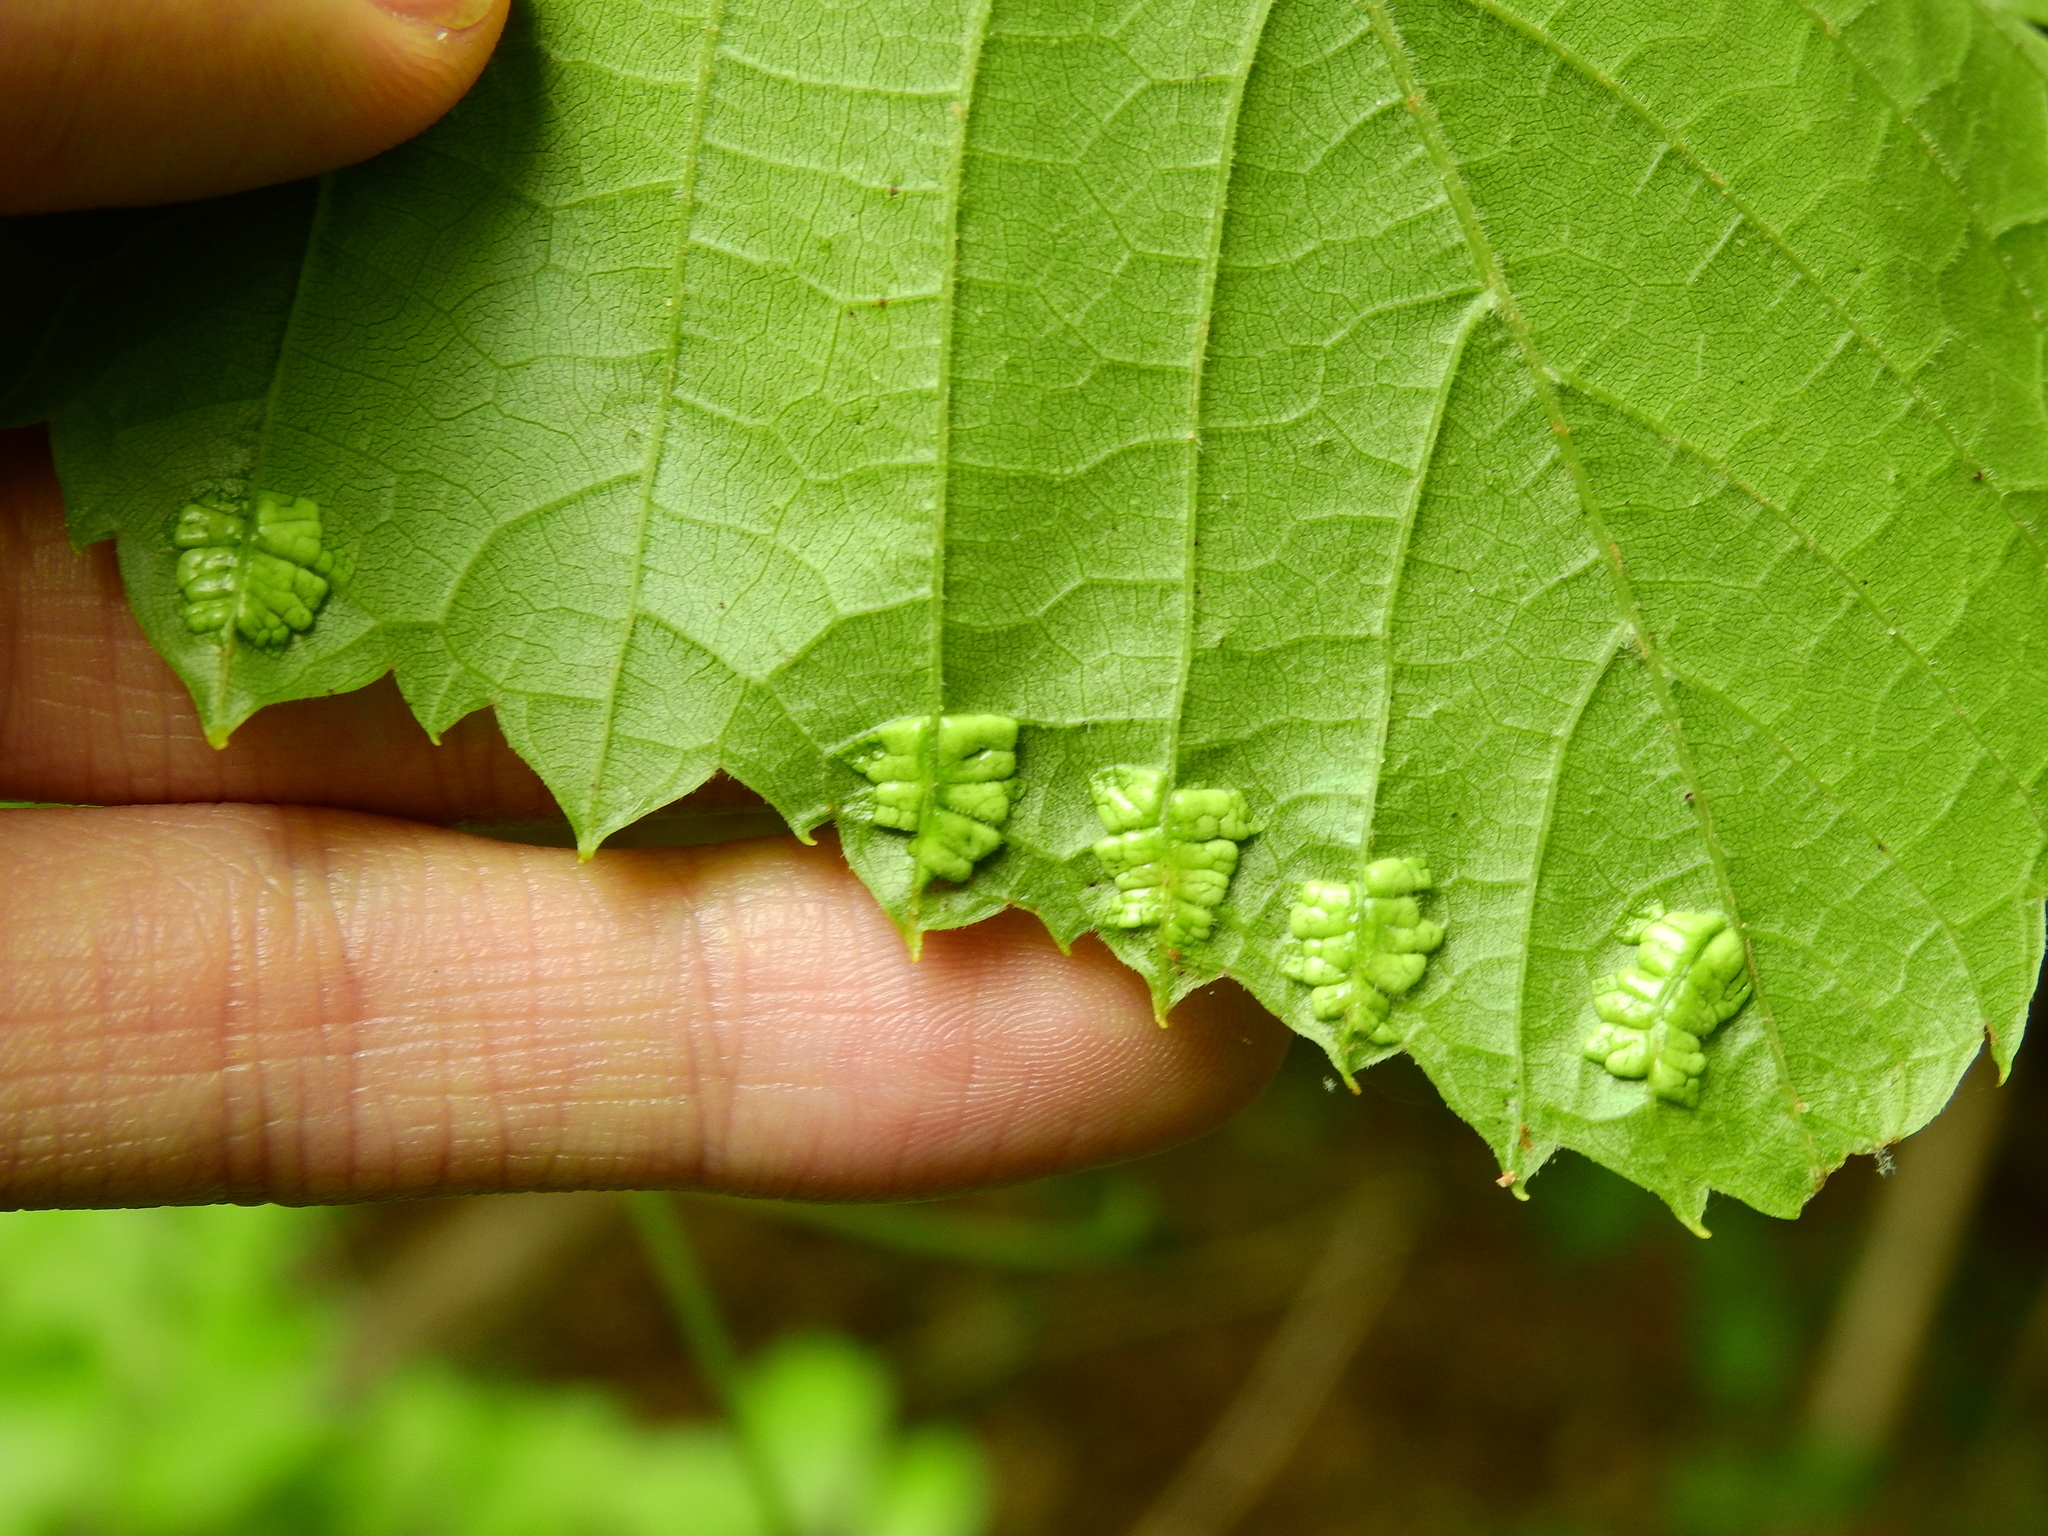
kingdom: Animalia
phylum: Arthropoda
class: Insecta
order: Lepidoptera
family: Heliozelidae
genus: Heliozela
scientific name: Heliozela aesella
